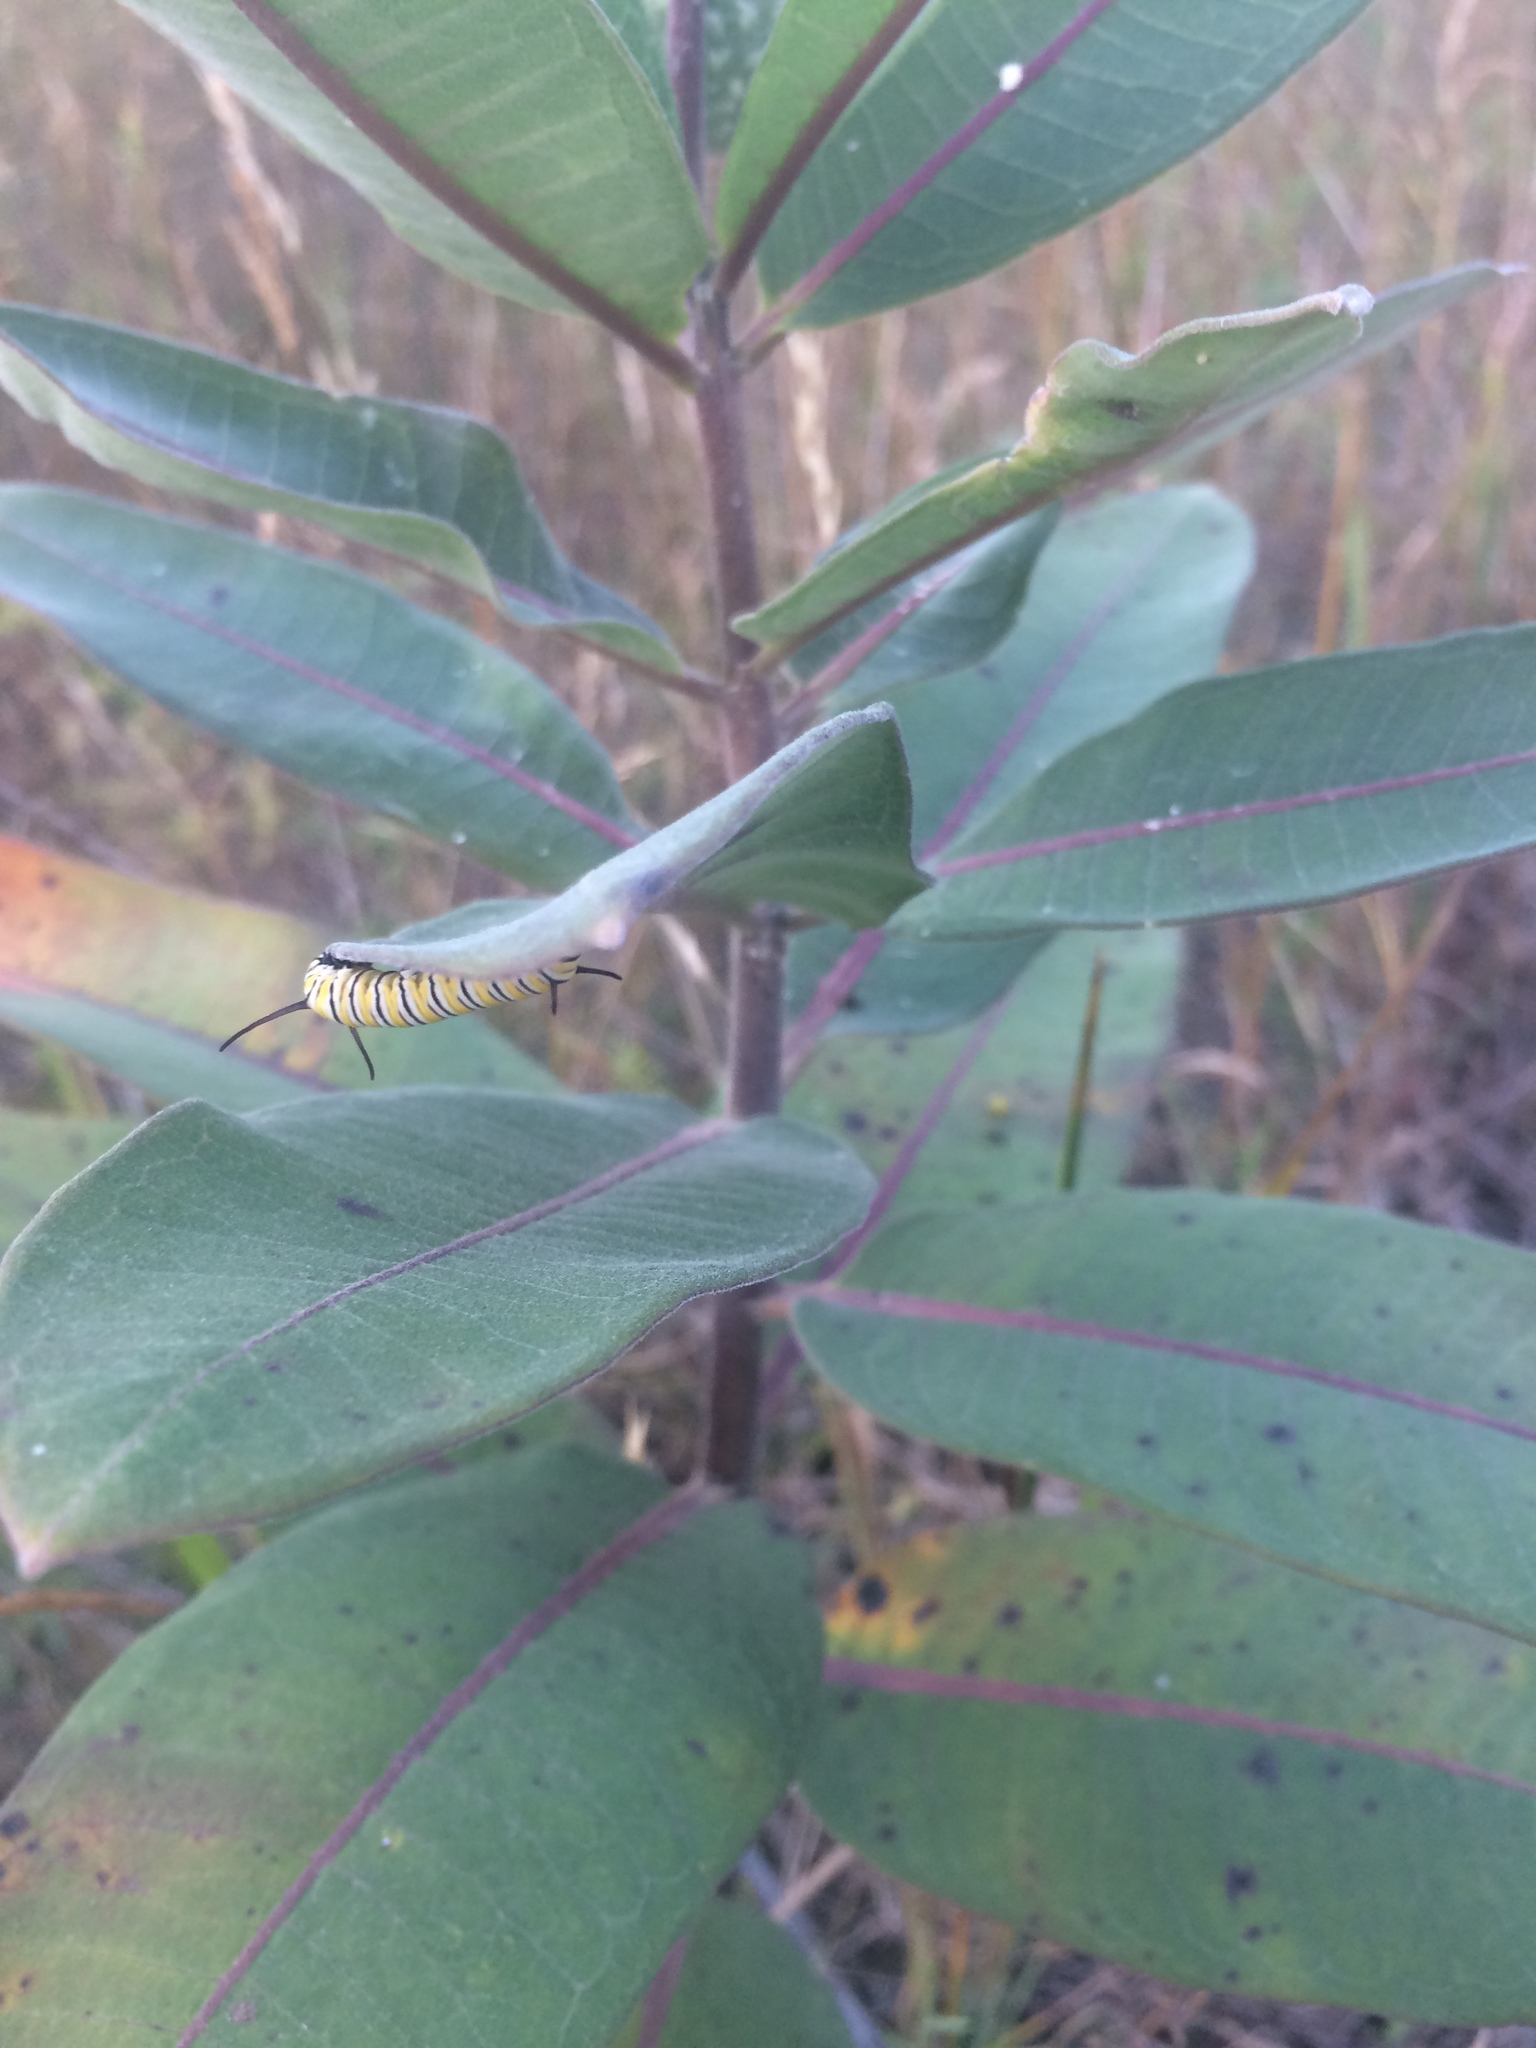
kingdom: Plantae
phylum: Tracheophyta
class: Magnoliopsida
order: Gentianales
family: Apocynaceae
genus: Asclepias
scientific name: Asclepias syriaca
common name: Common milkweed
